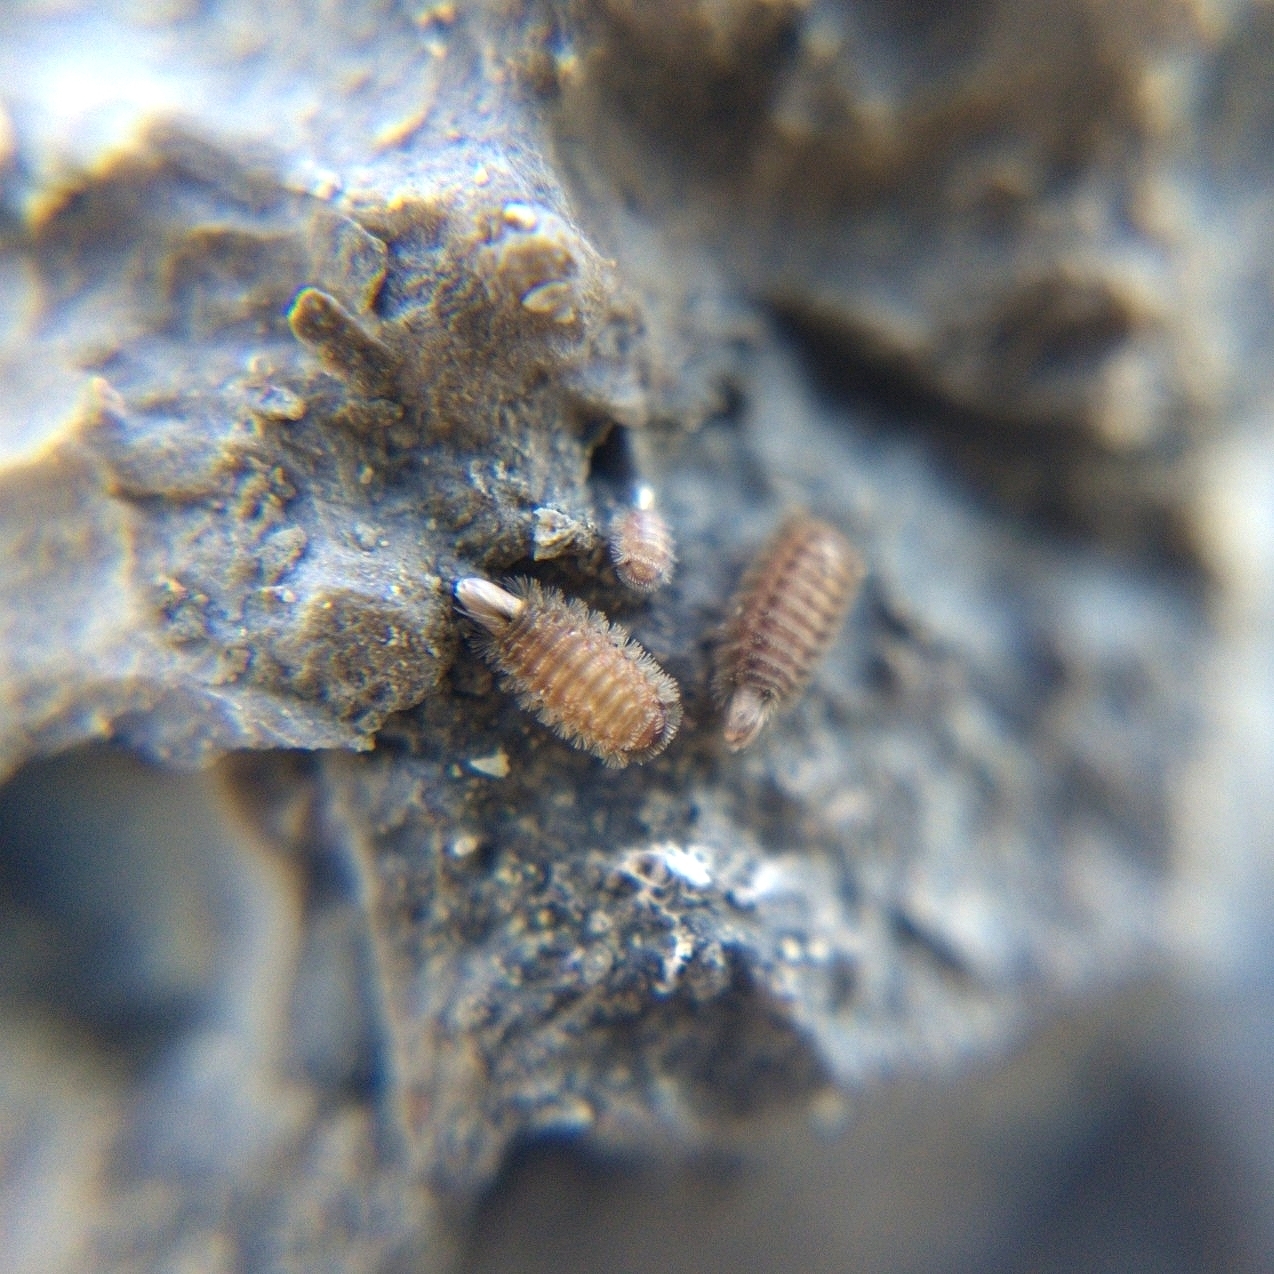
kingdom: Animalia
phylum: Arthropoda
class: Diplopoda
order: Polyxenida
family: Polyxenidae
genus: Polyxenus
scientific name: Polyxenus lagurus
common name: Bristly millipede
